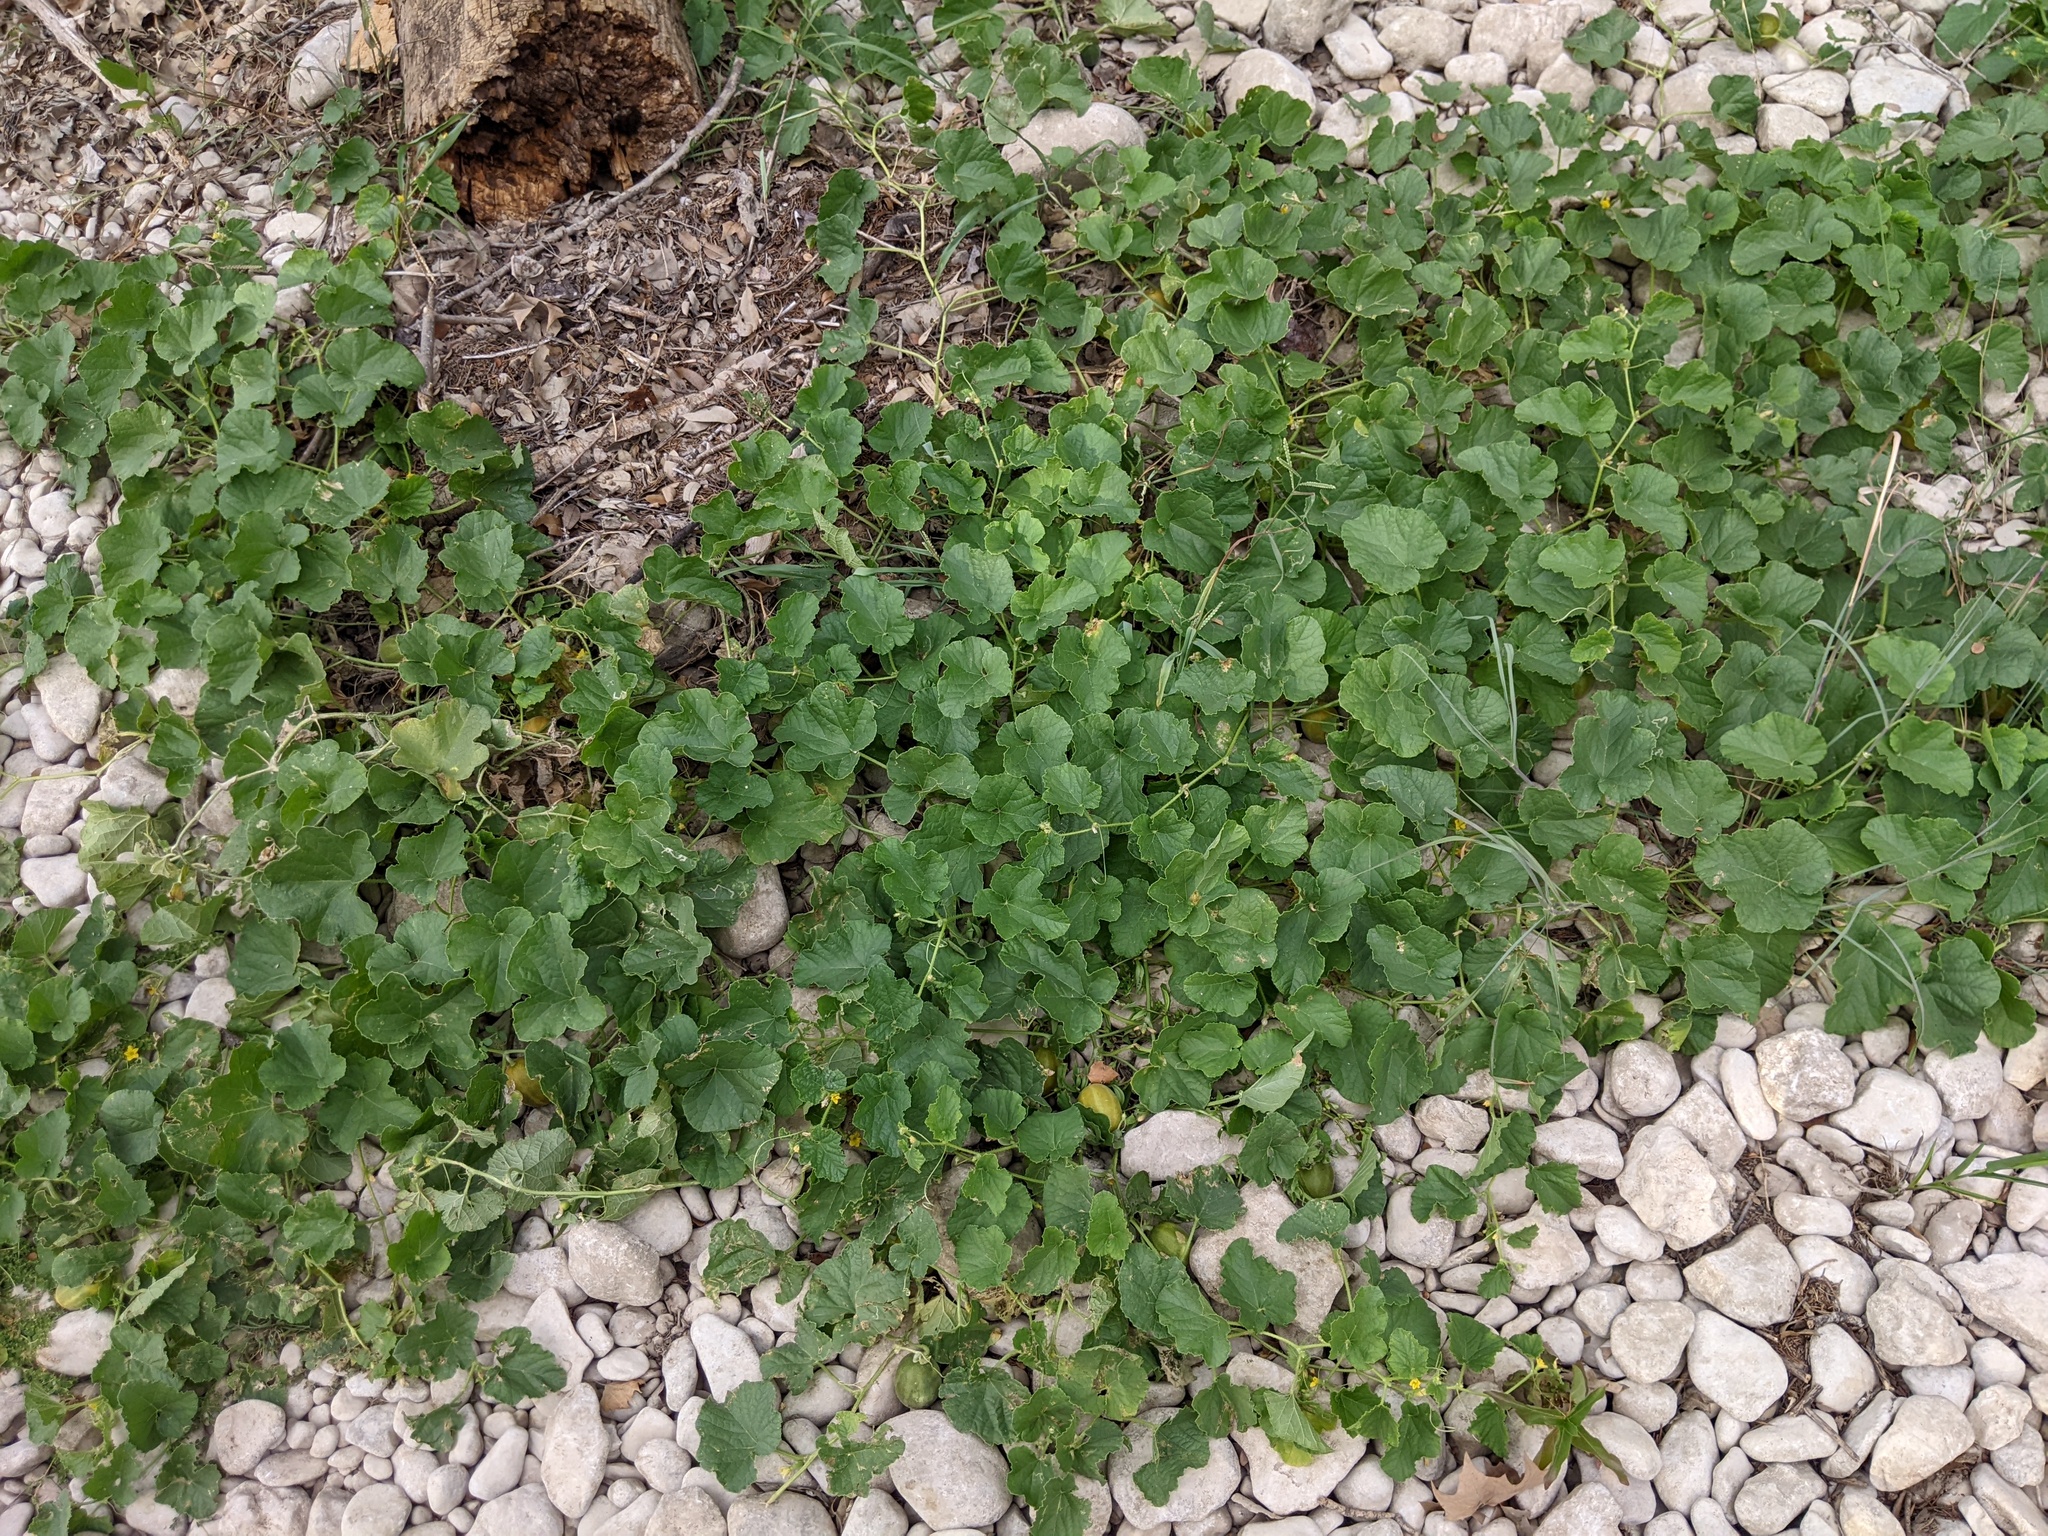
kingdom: Plantae
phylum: Tracheophyta
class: Magnoliopsida
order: Cucurbitales
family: Cucurbitaceae
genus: Cucumis
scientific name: Cucumis melo
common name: Melon
